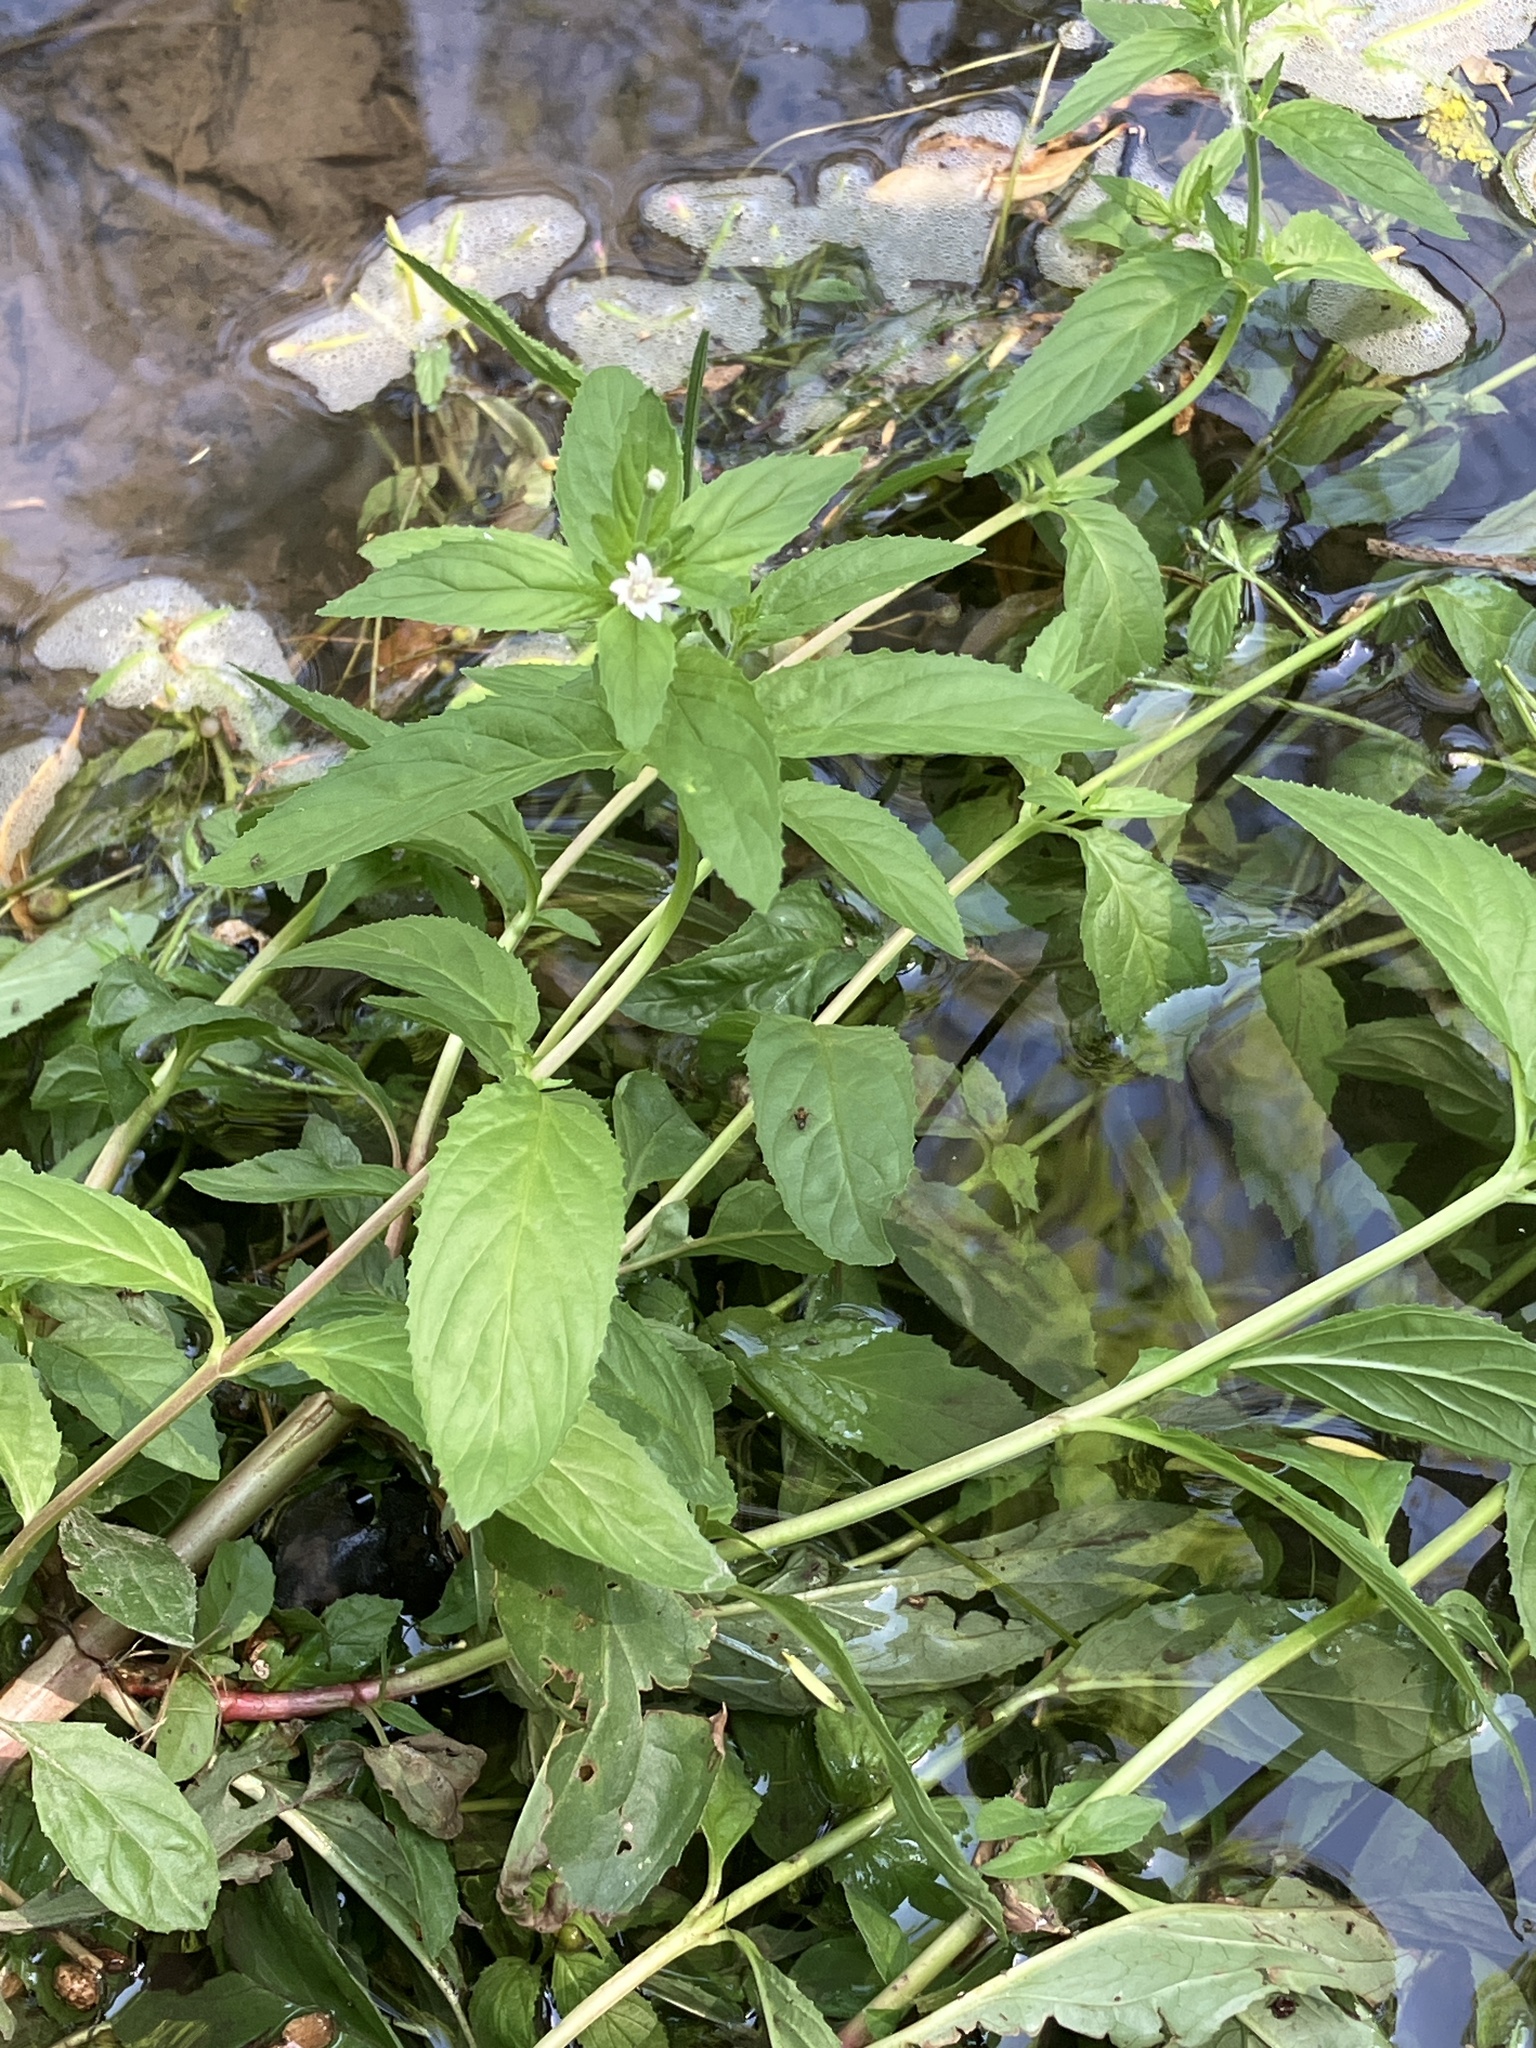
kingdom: Plantae
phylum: Tracheophyta
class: Magnoliopsida
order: Myrtales
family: Onagraceae
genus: Epilobium
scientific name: Epilobium roseum
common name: Pale willowherb
